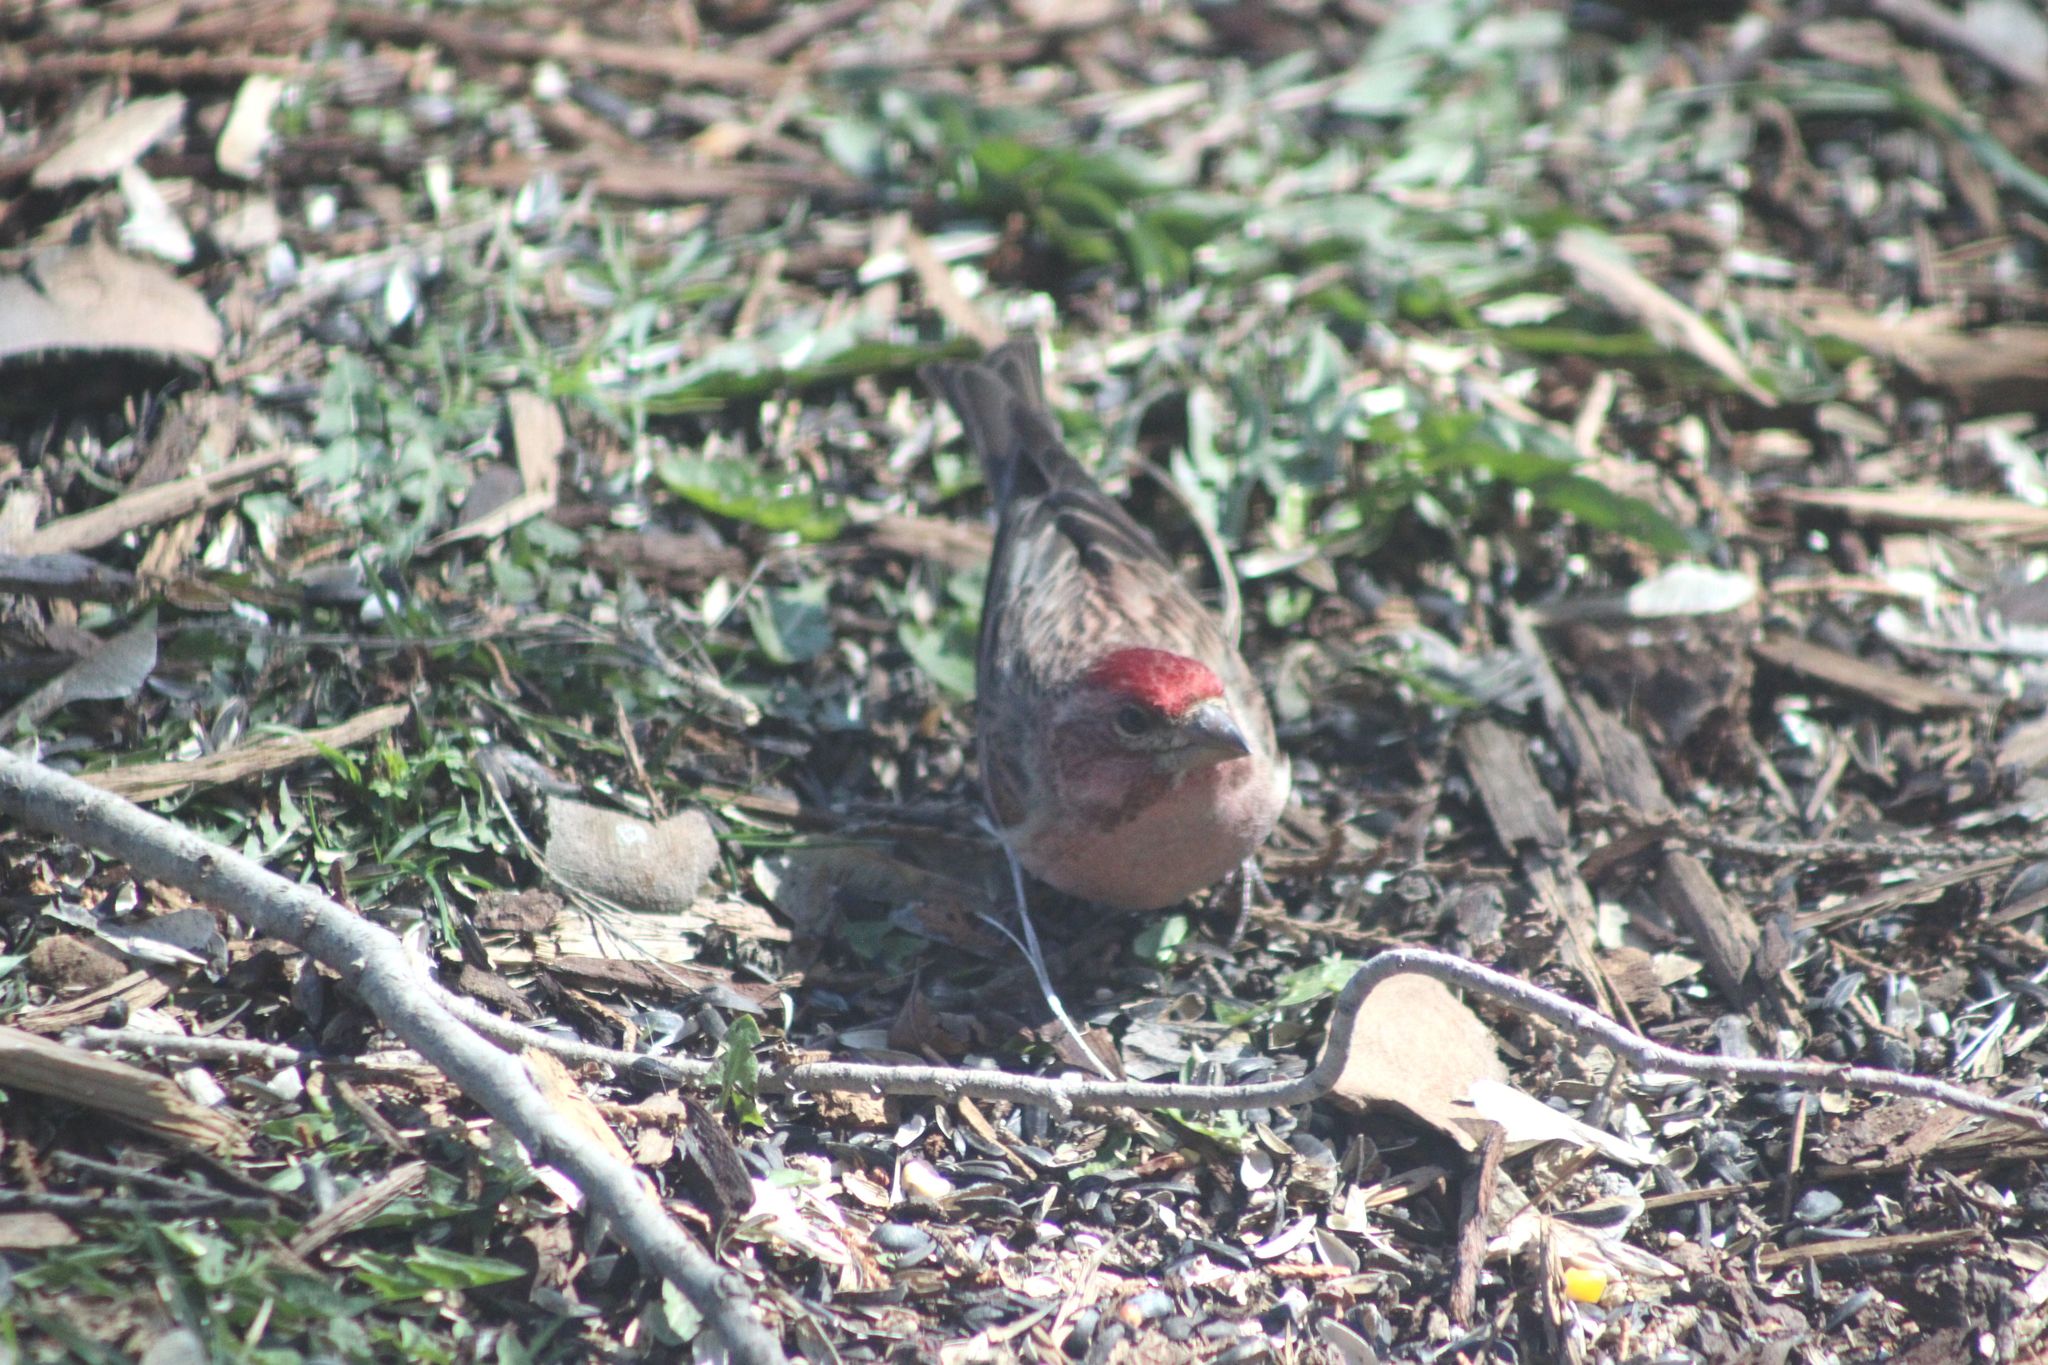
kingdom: Animalia
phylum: Chordata
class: Aves
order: Passeriformes
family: Fringillidae
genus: Haemorhous
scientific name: Haemorhous cassinii
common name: Cassin's finch
